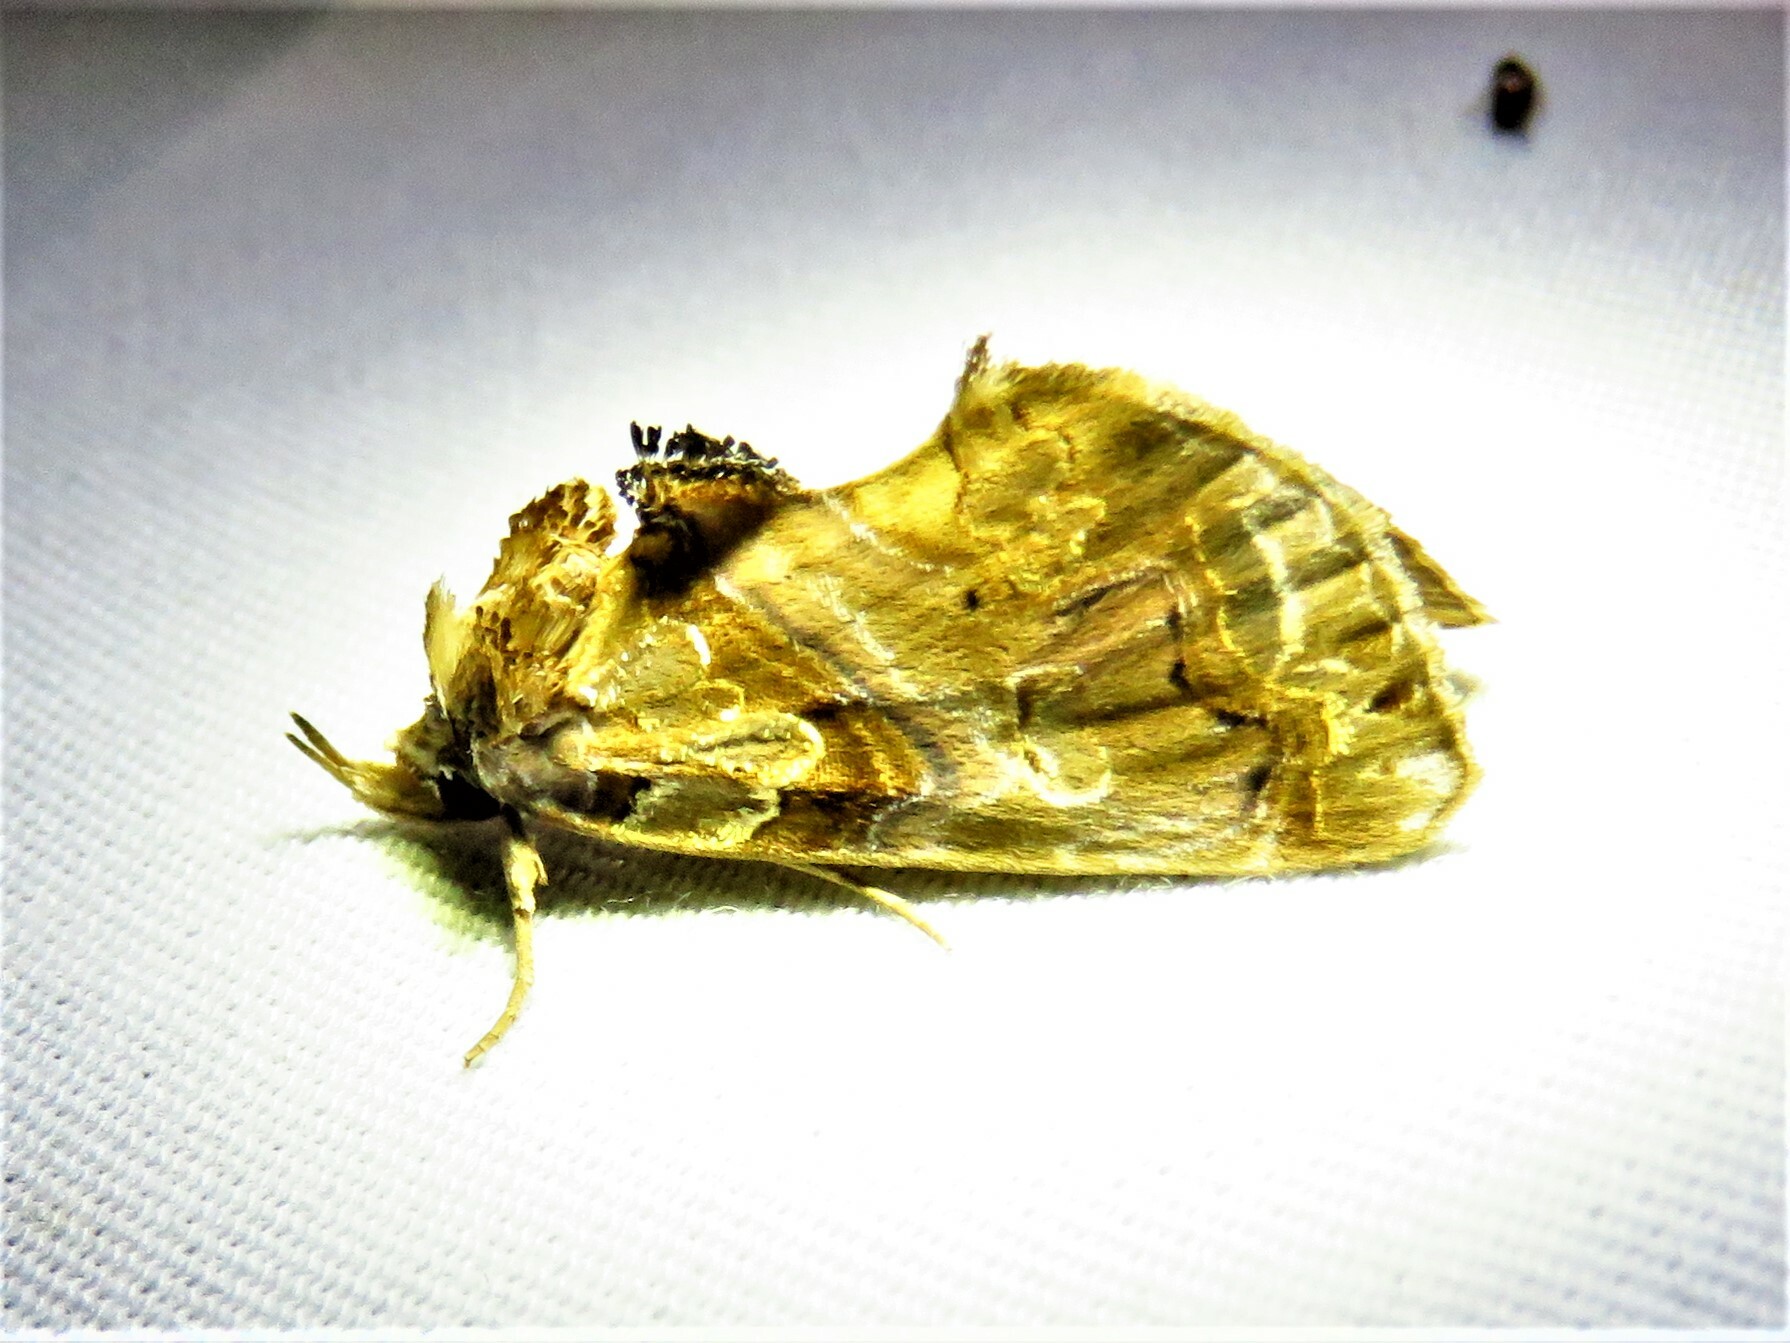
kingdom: Animalia
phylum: Arthropoda
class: Insecta
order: Lepidoptera
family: Erebidae
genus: Plusiodonta
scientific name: Plusiodonta compressipalpis
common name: Moonseed moth
